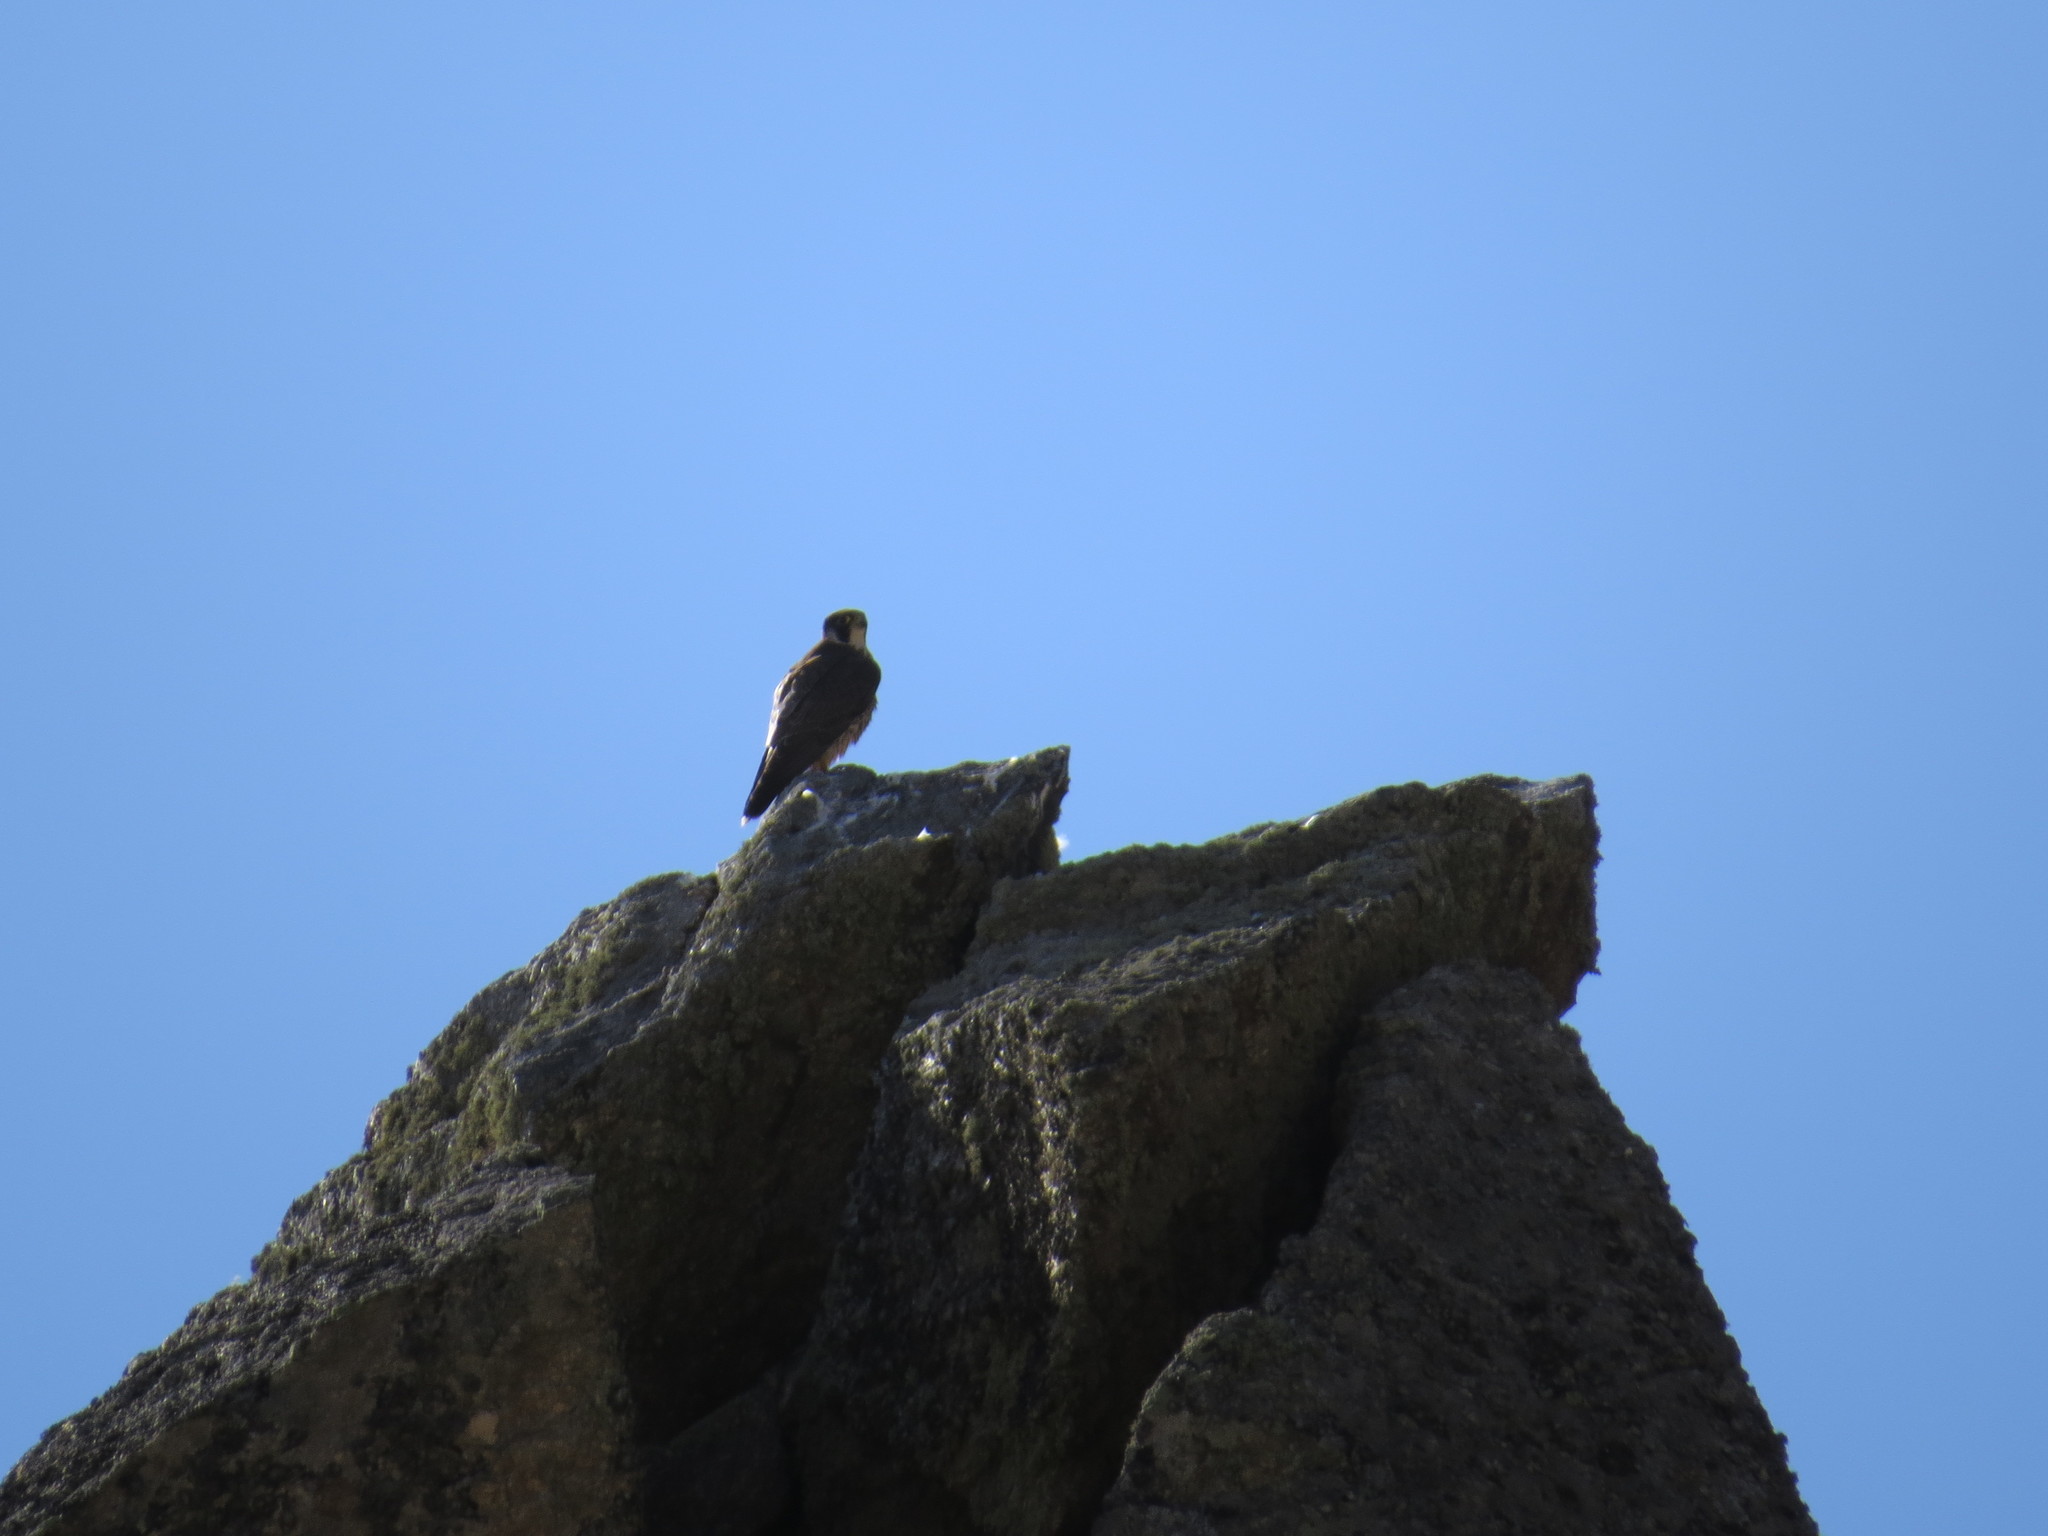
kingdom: Animalia
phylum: Chordata
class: Aves
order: Falconiformes
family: Falconidae
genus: Falco
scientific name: Falco peregrinus
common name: Peregrine falcon
